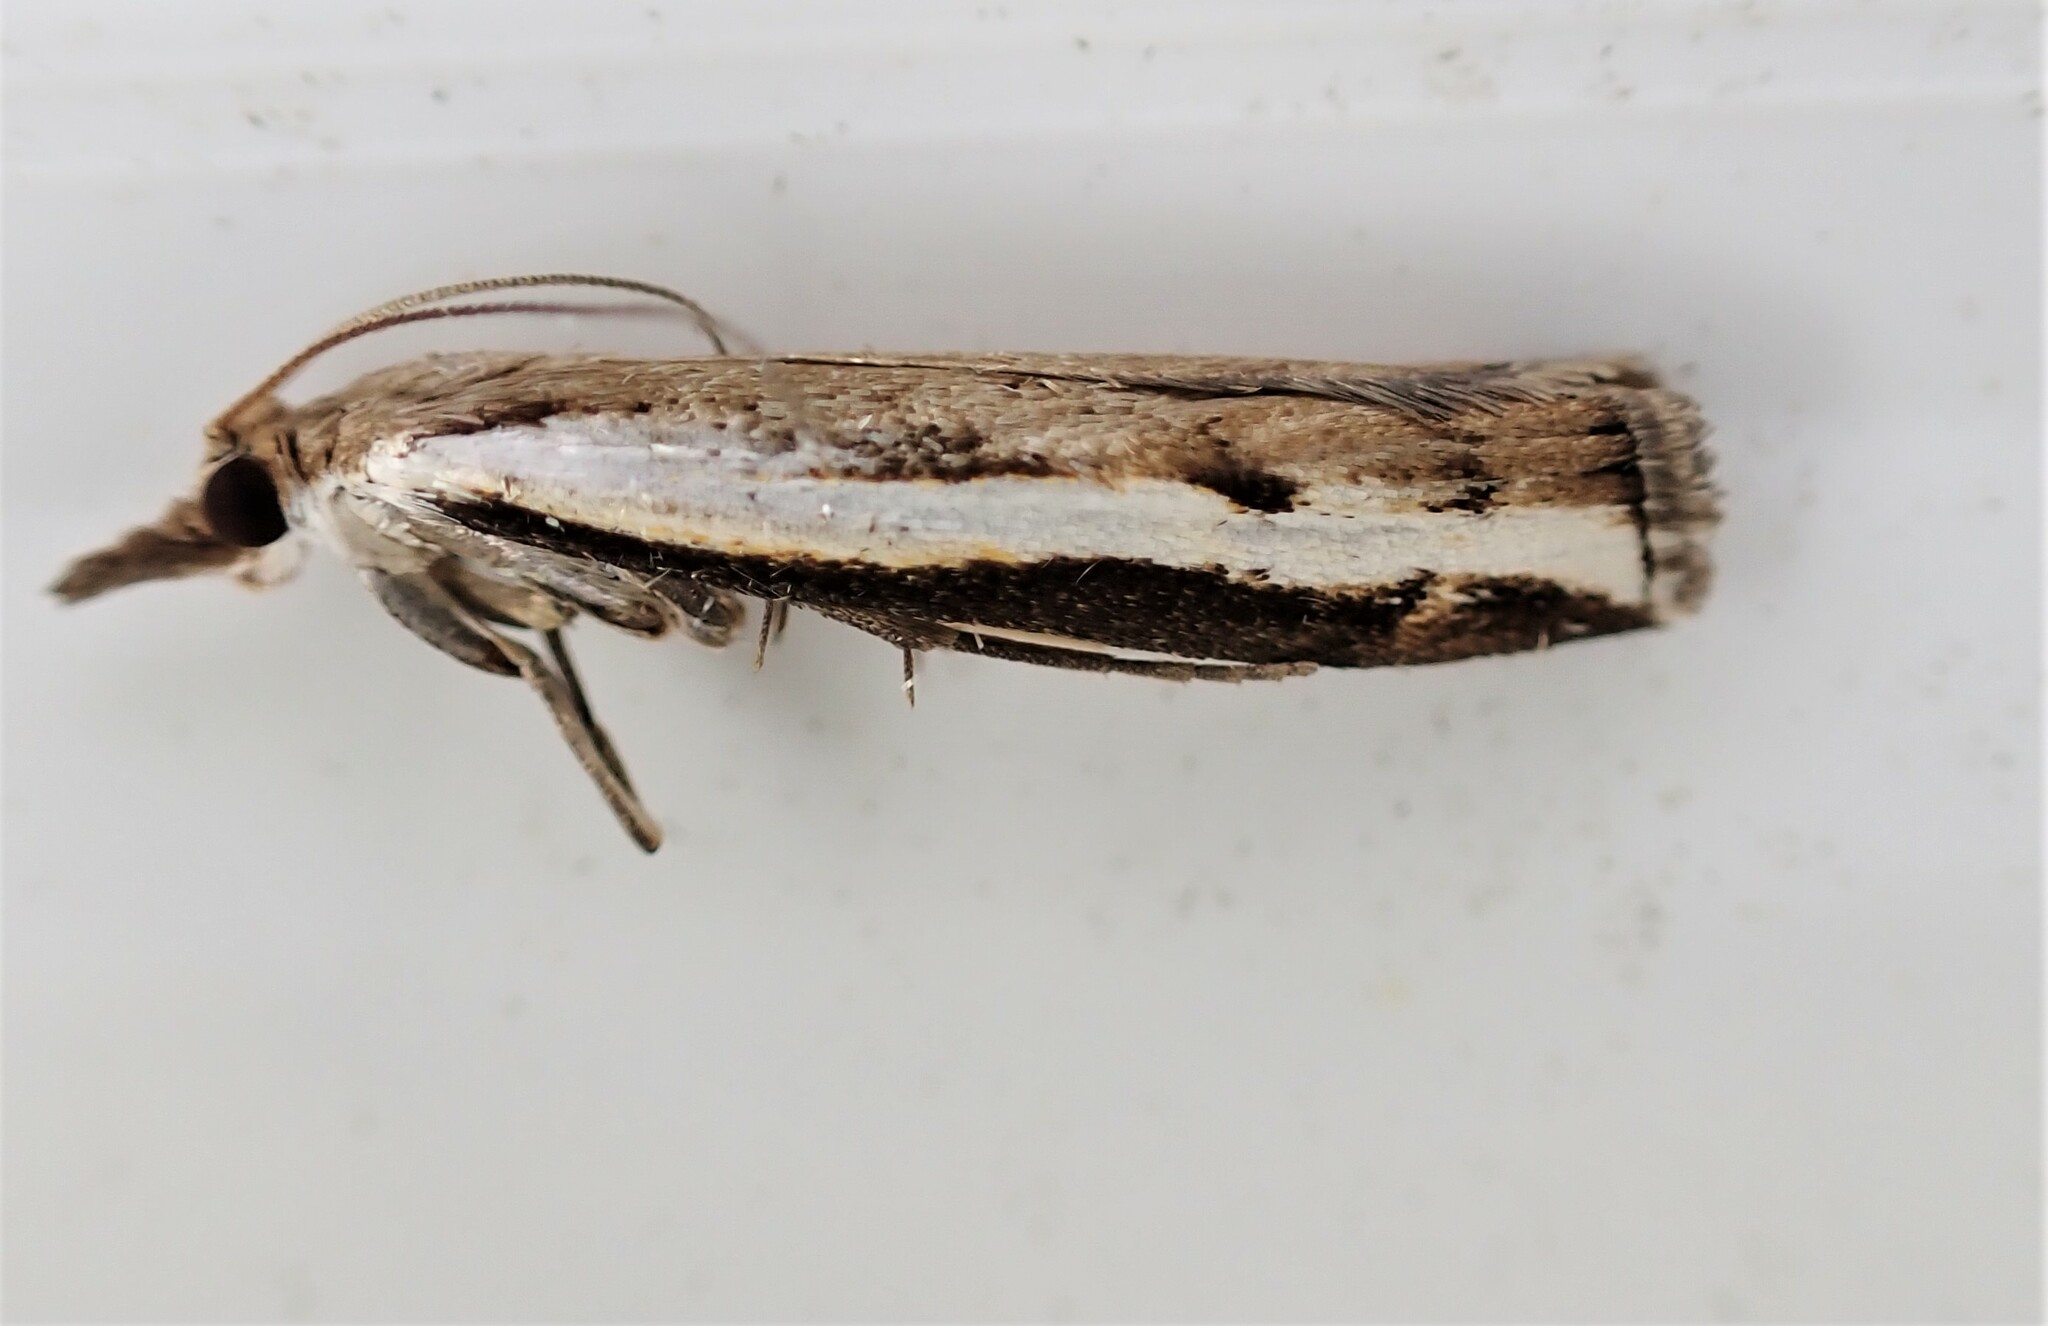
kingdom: Animalia
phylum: Arthropoda
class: Insecta
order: Lepidoptera
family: Crambidae
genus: Orocrambus
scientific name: Orocrambus flexuosellus
